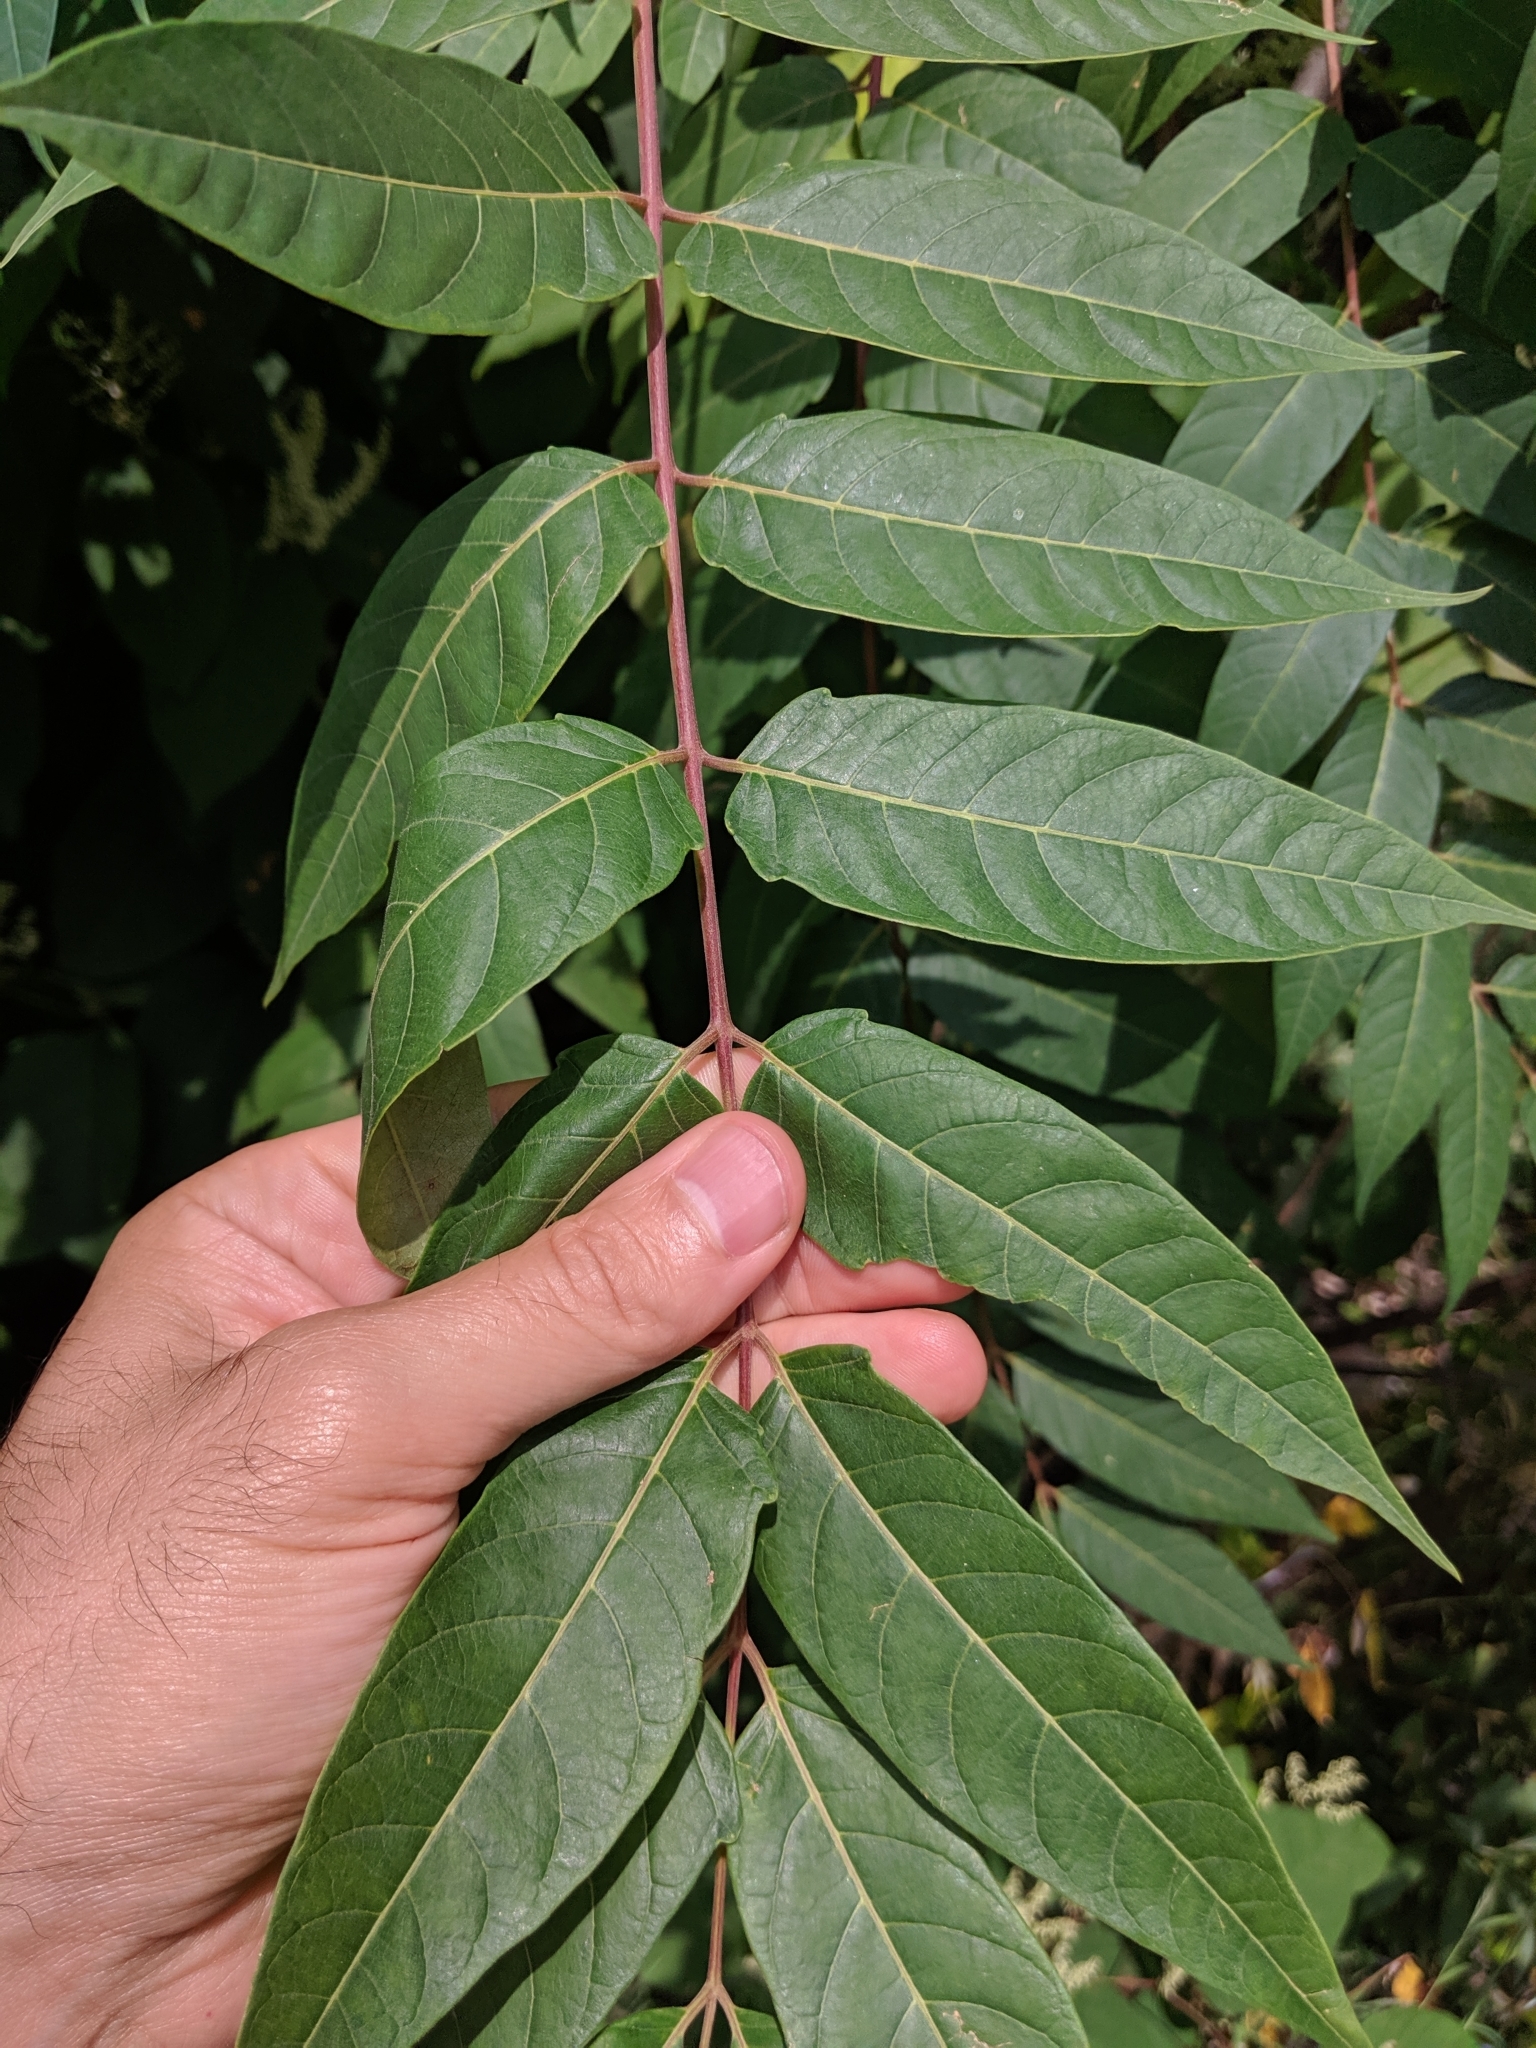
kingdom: Plantae
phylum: Tracheophyta
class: Magnoliopsida
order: Sapindales
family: Simaroubaceae
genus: Ailanthus
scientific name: Ailanthus altissima
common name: Tree-of-heaven
